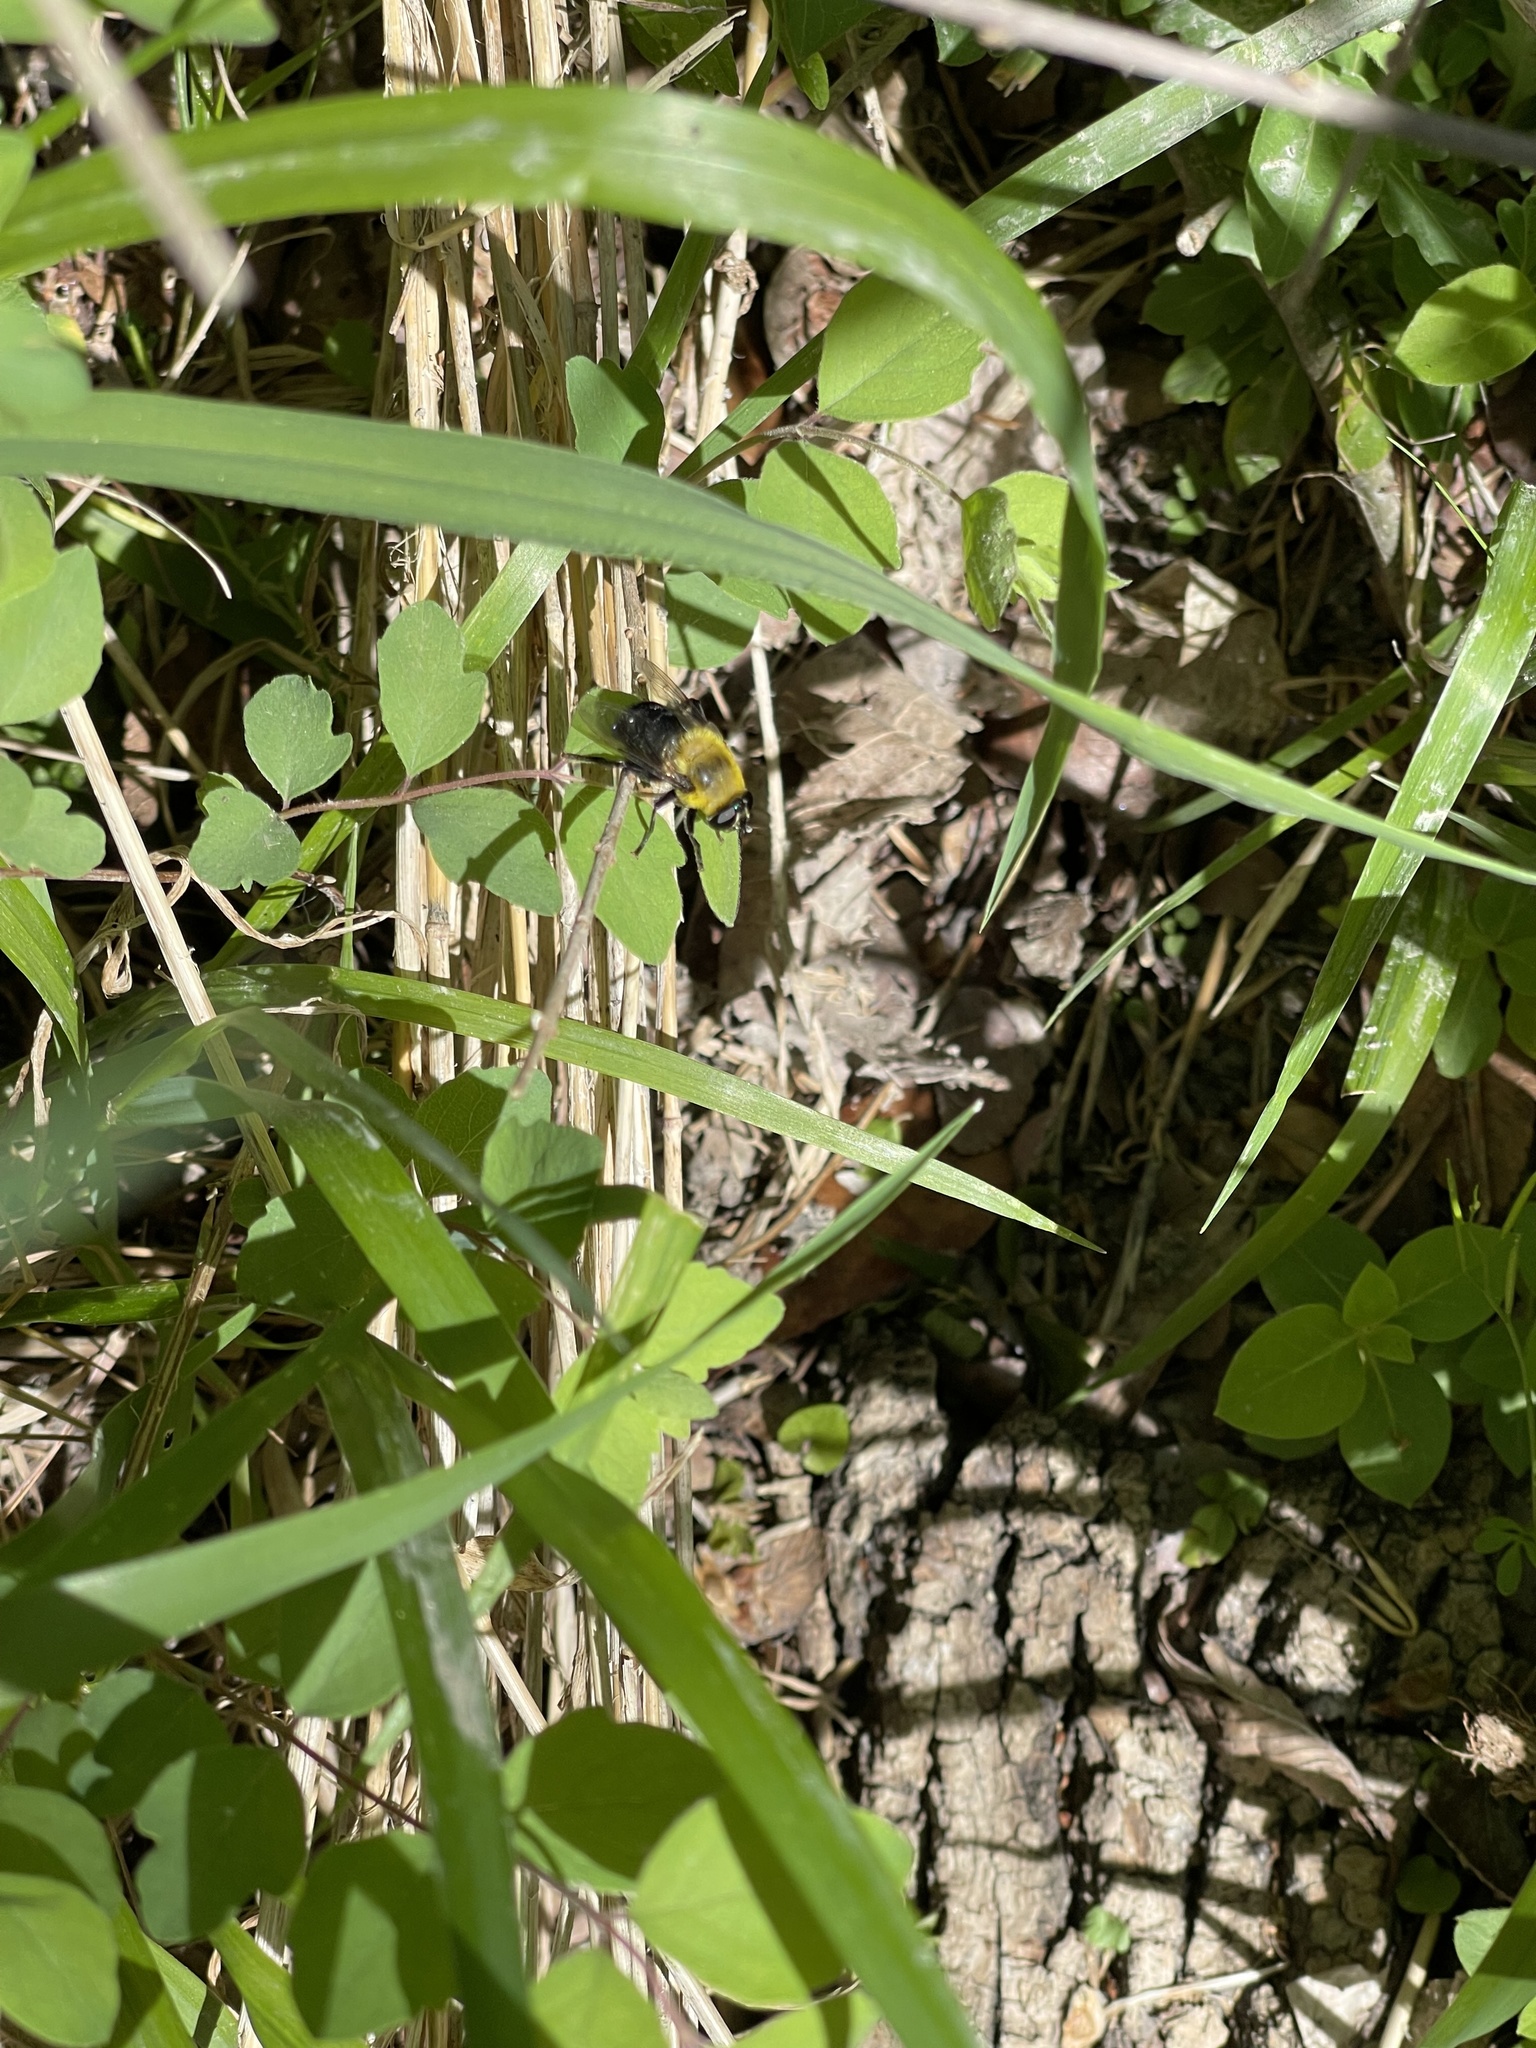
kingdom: Animalia
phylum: Arthropoda
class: Insecta
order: Diptera
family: Syrphidae
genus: Imatisma
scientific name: Imatisma bautias
